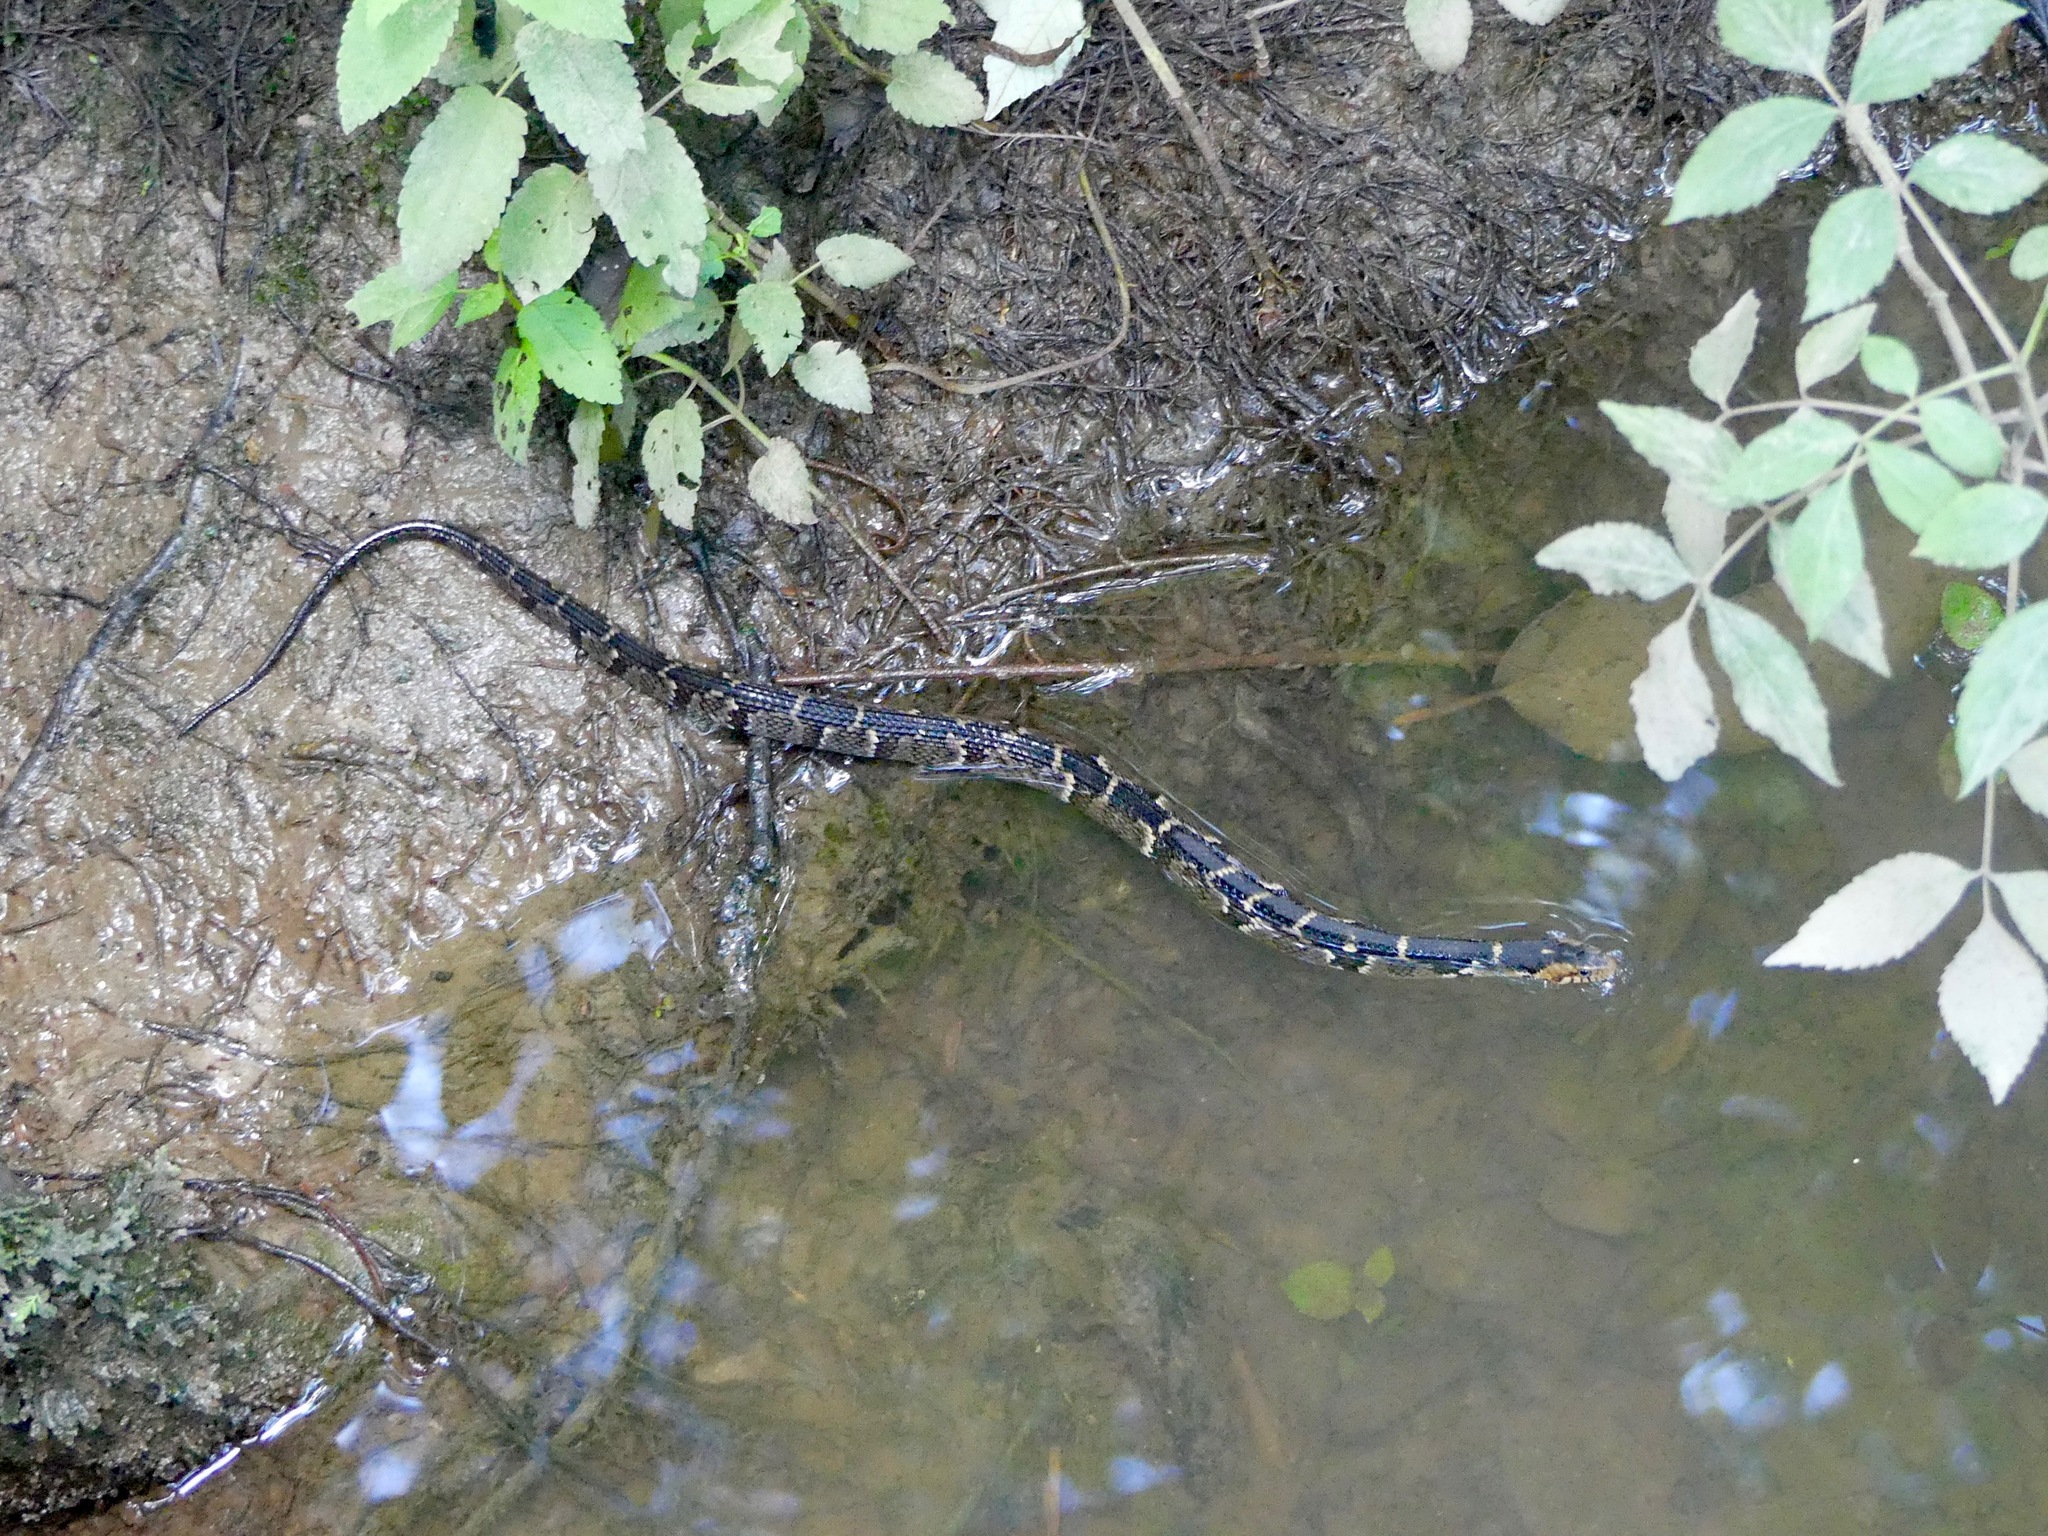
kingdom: Animalia
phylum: Chordata
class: Squamata
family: Colubridae
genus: Nerodia
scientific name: Nerodia fasciata
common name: Southern water snake
